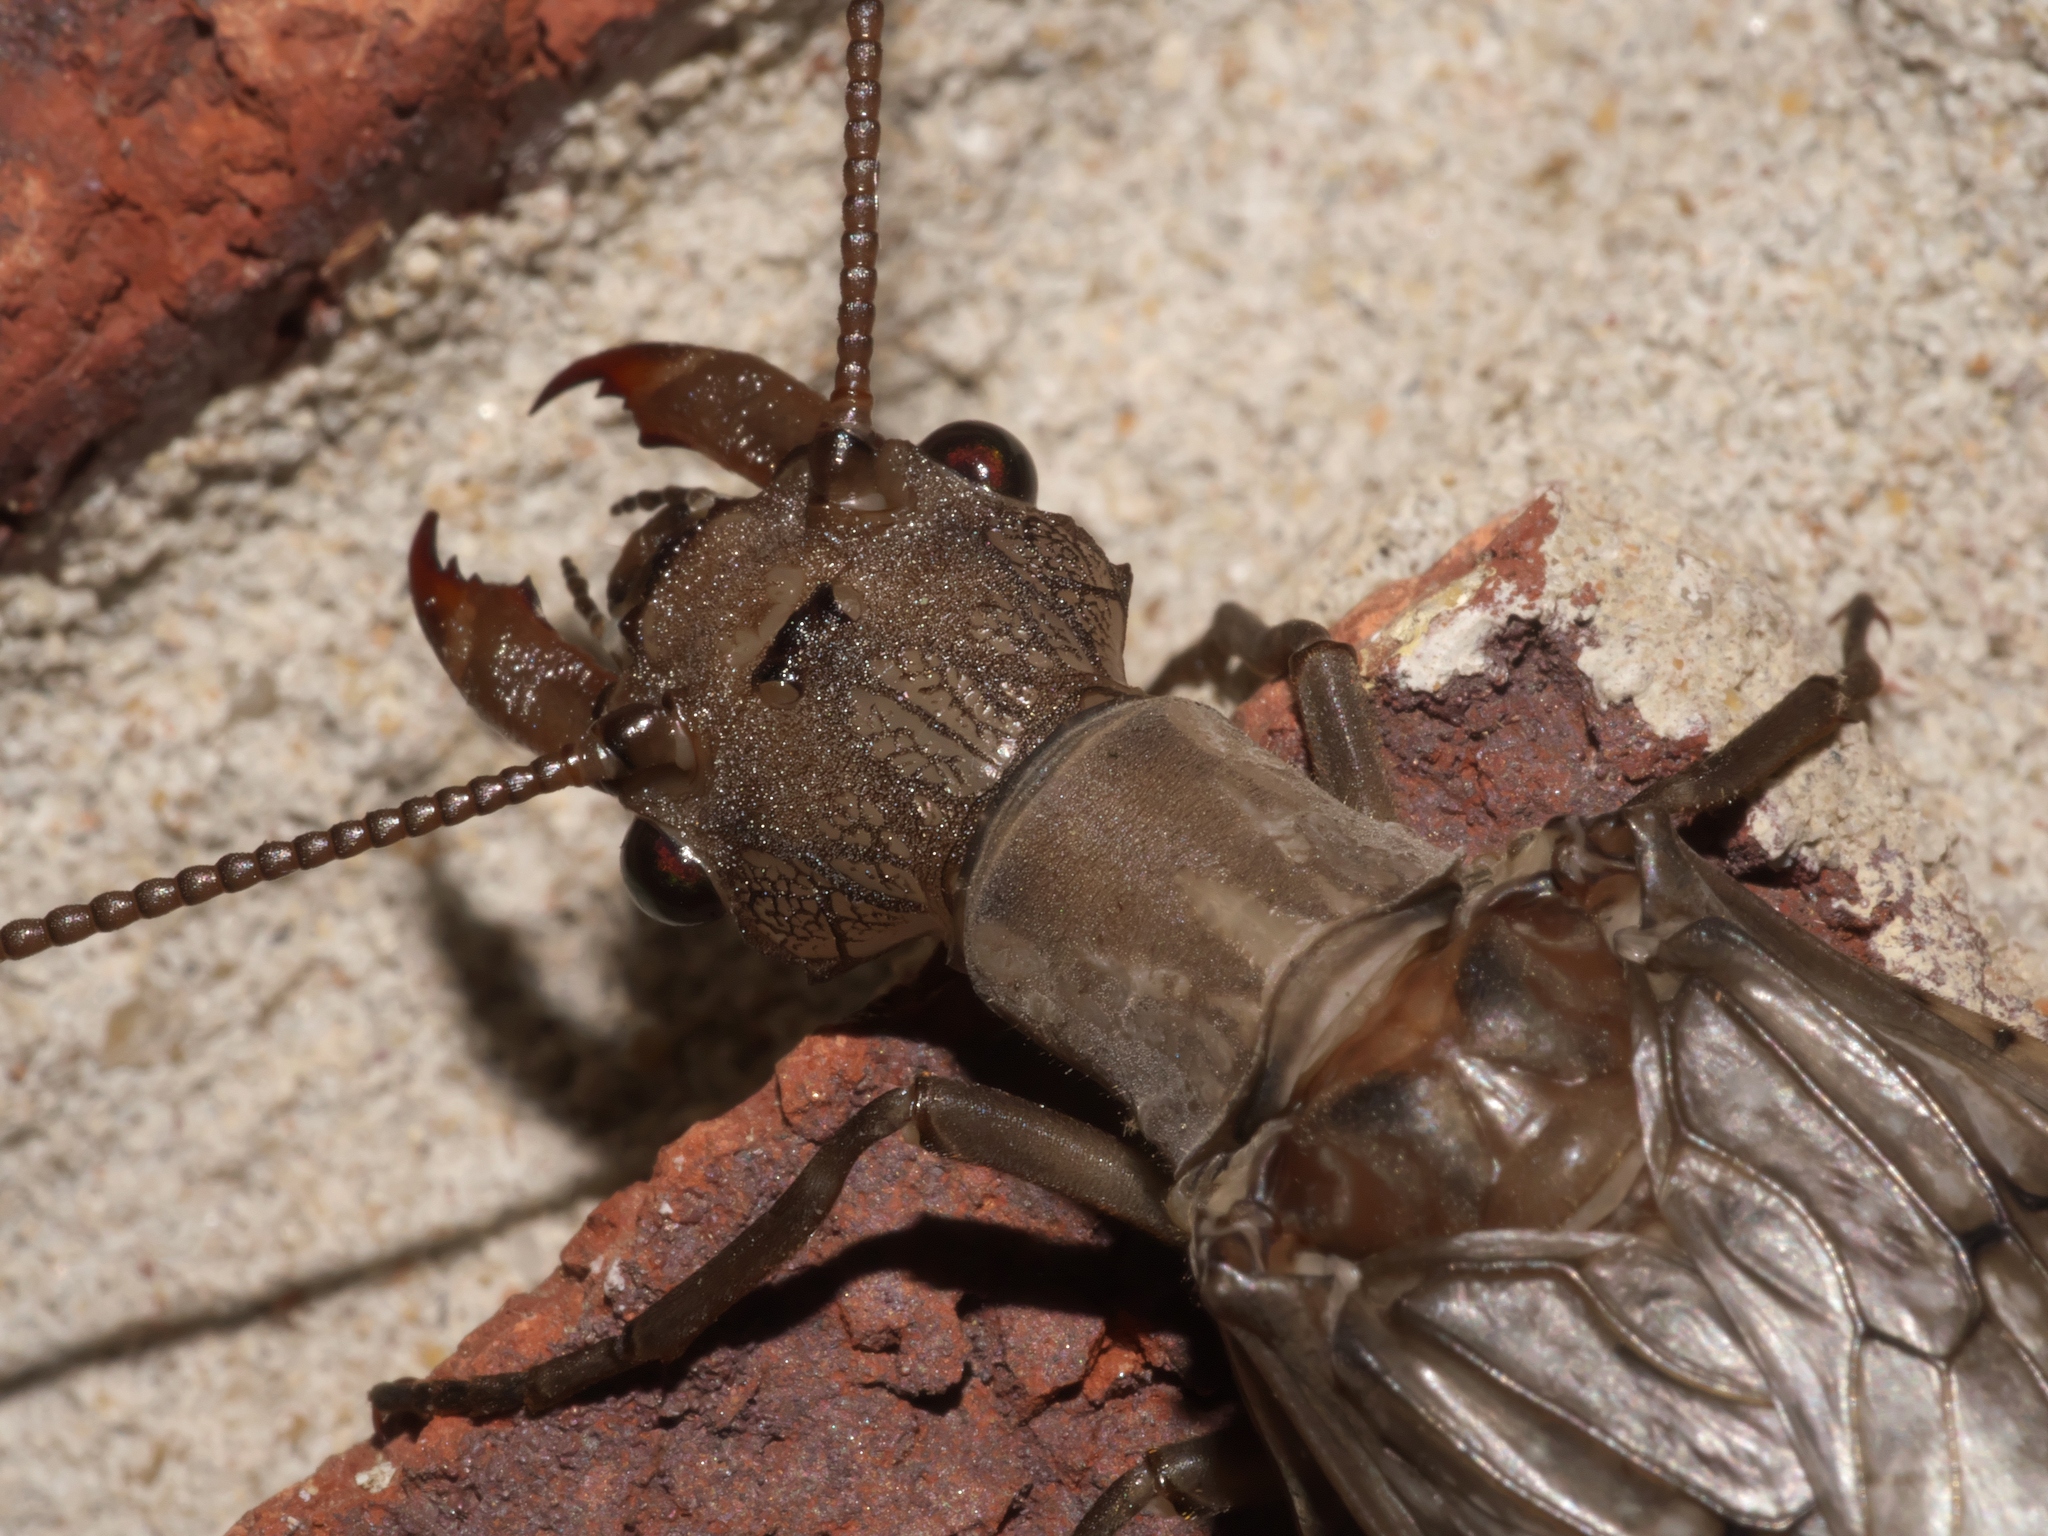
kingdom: Animalia
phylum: Arthropoda
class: Insecta
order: Megaloptera
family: Corydalidae
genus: Corydalus
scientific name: Corydalus cornutus
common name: Dobsonfly
